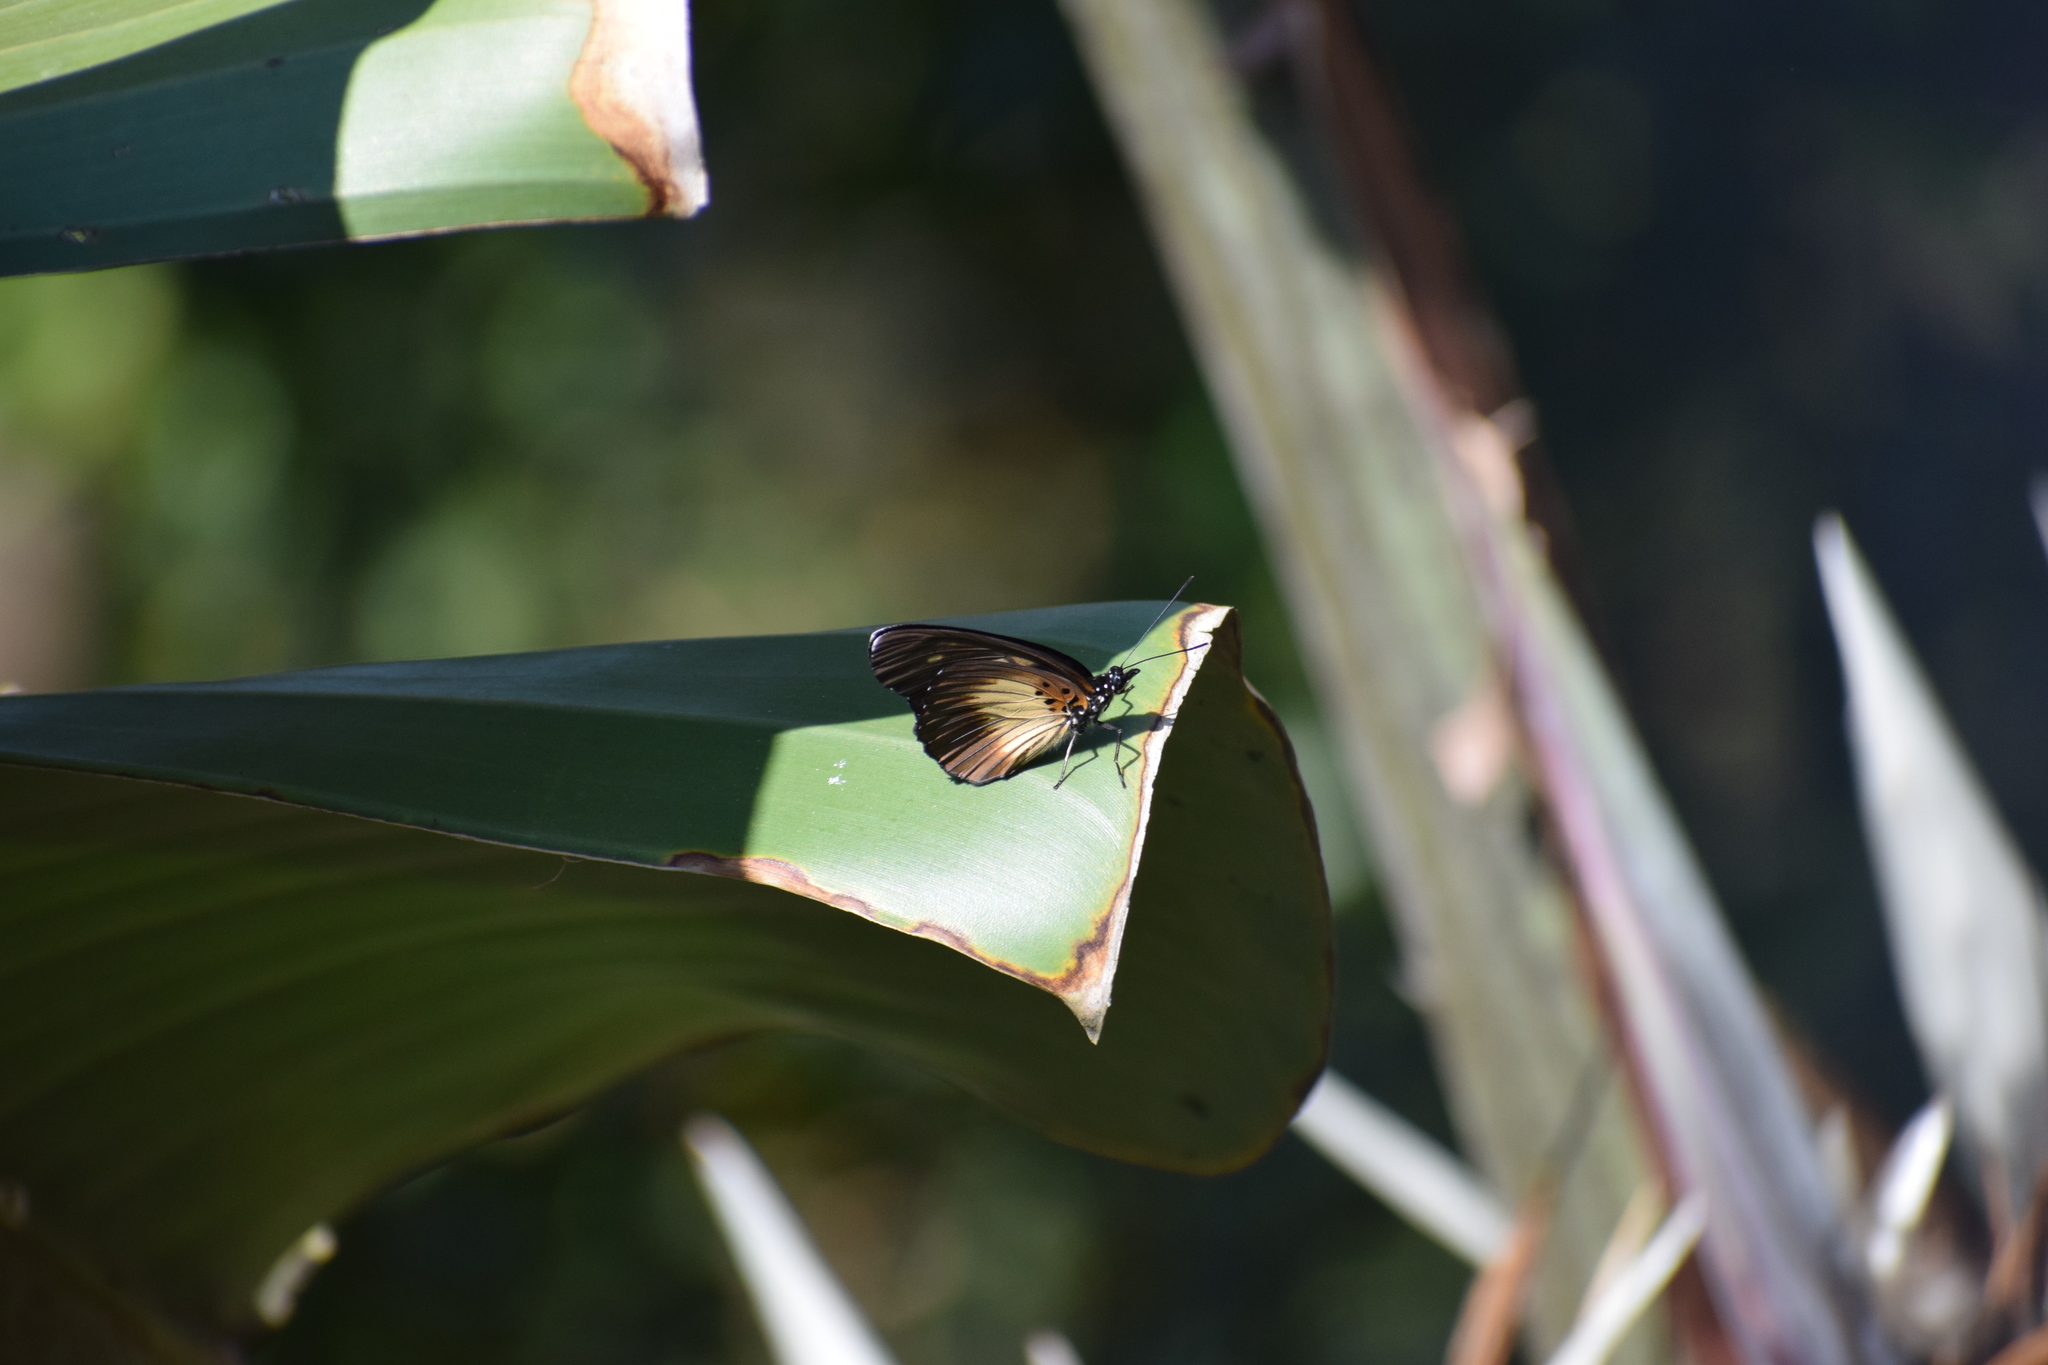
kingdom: Animalia
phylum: Arthropoda
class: Insecta
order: Lepidoptera
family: Nymphalidae
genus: Chloropoea
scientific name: Chloropoea lucretia
